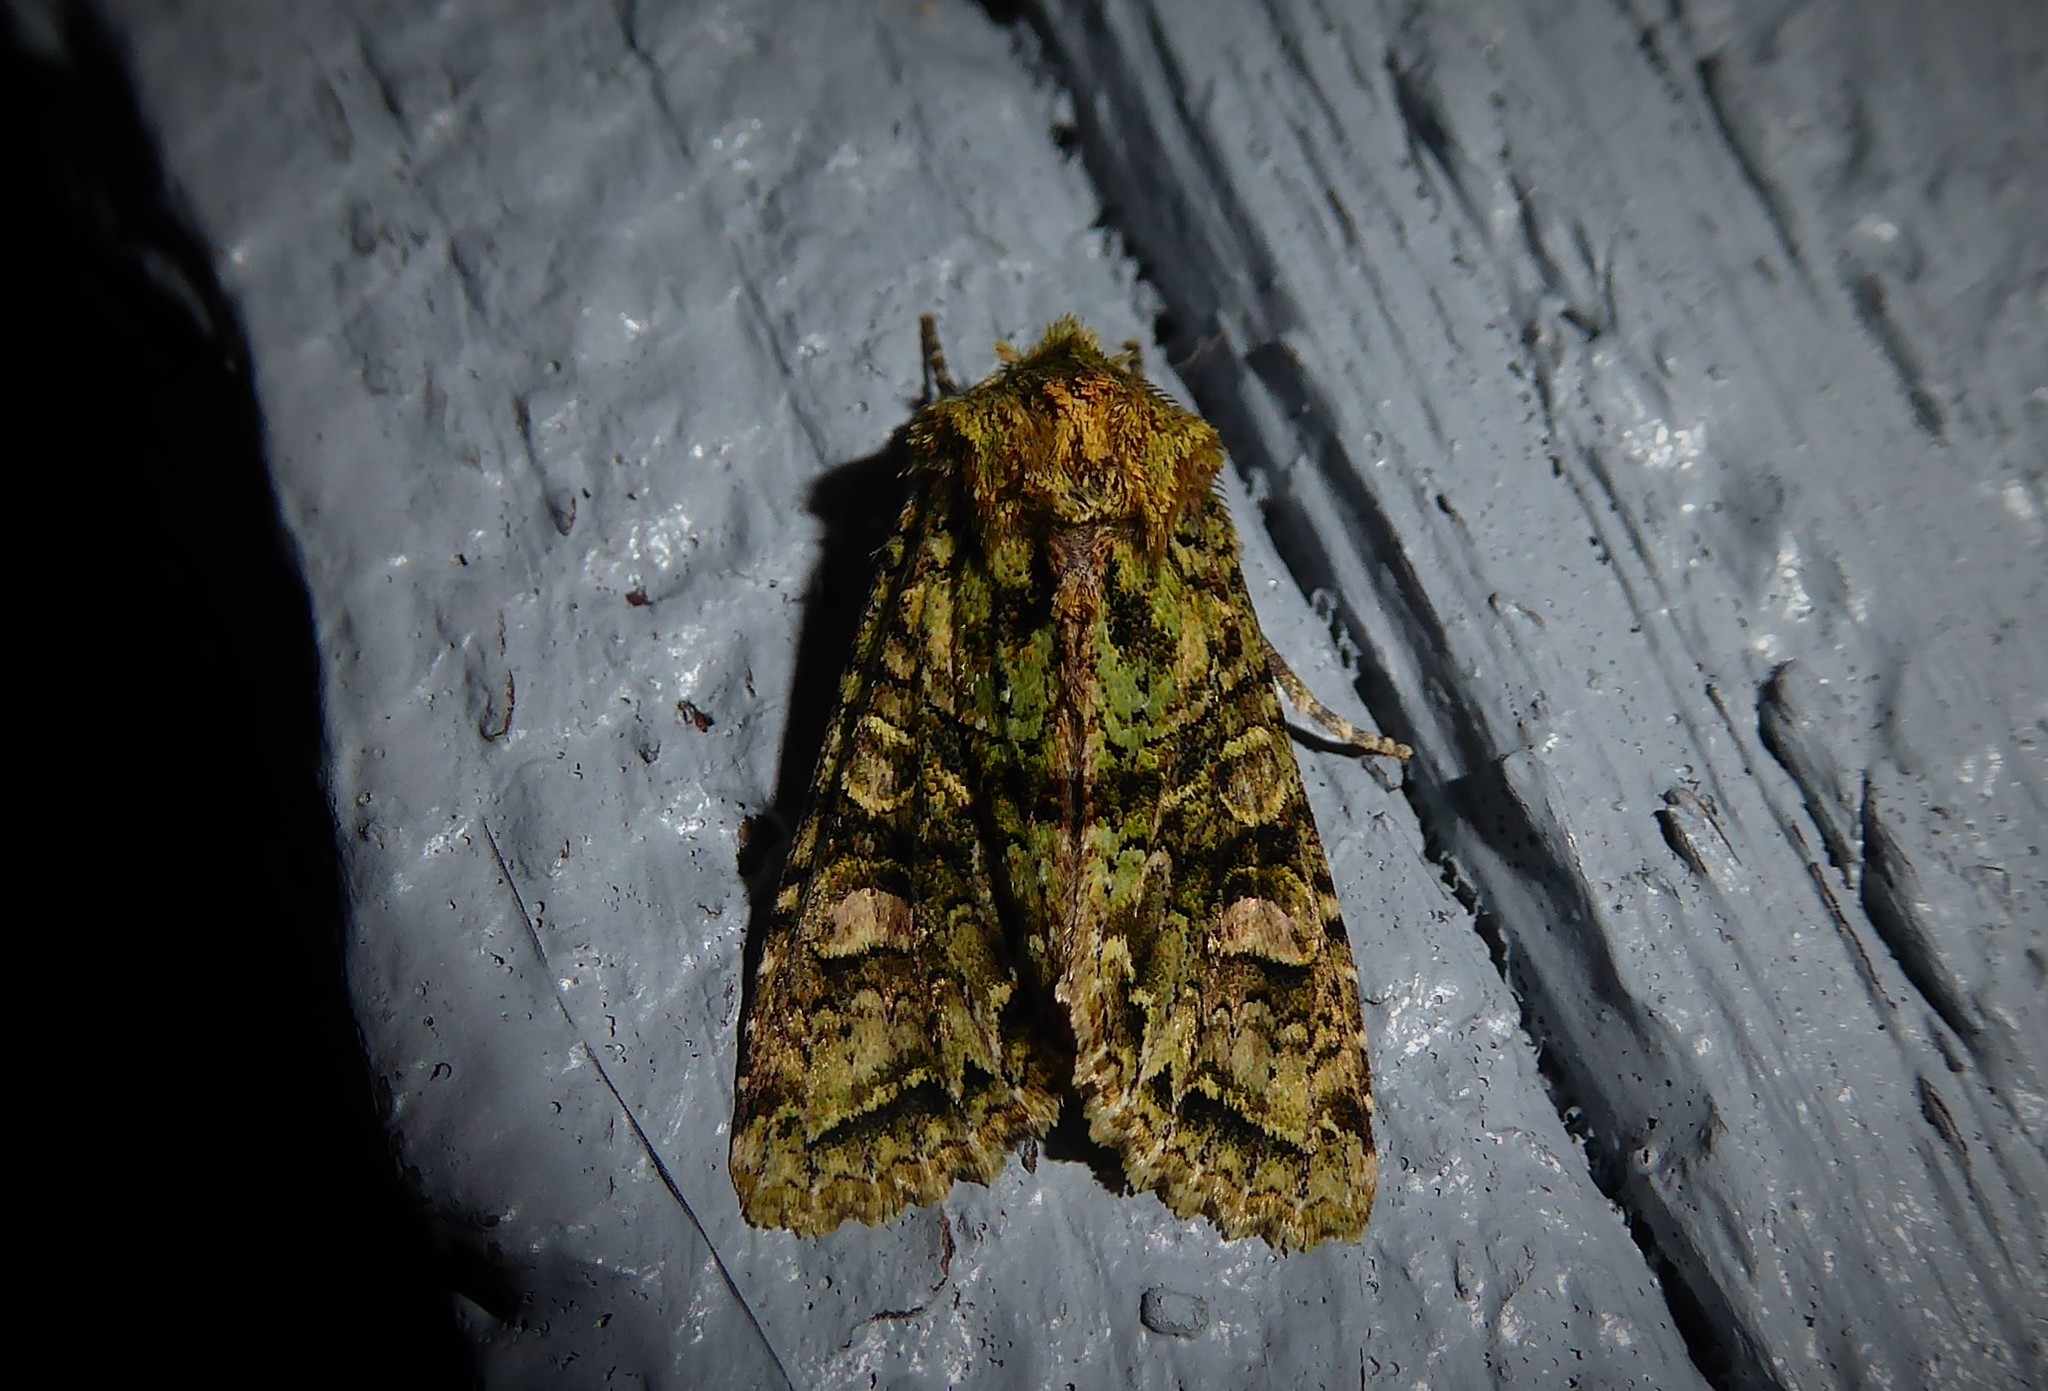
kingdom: Animalia
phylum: Arthropoda
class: Insecta
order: Lepidoptera
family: Noctuidae
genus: Ichneutica
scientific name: Ichneutica
